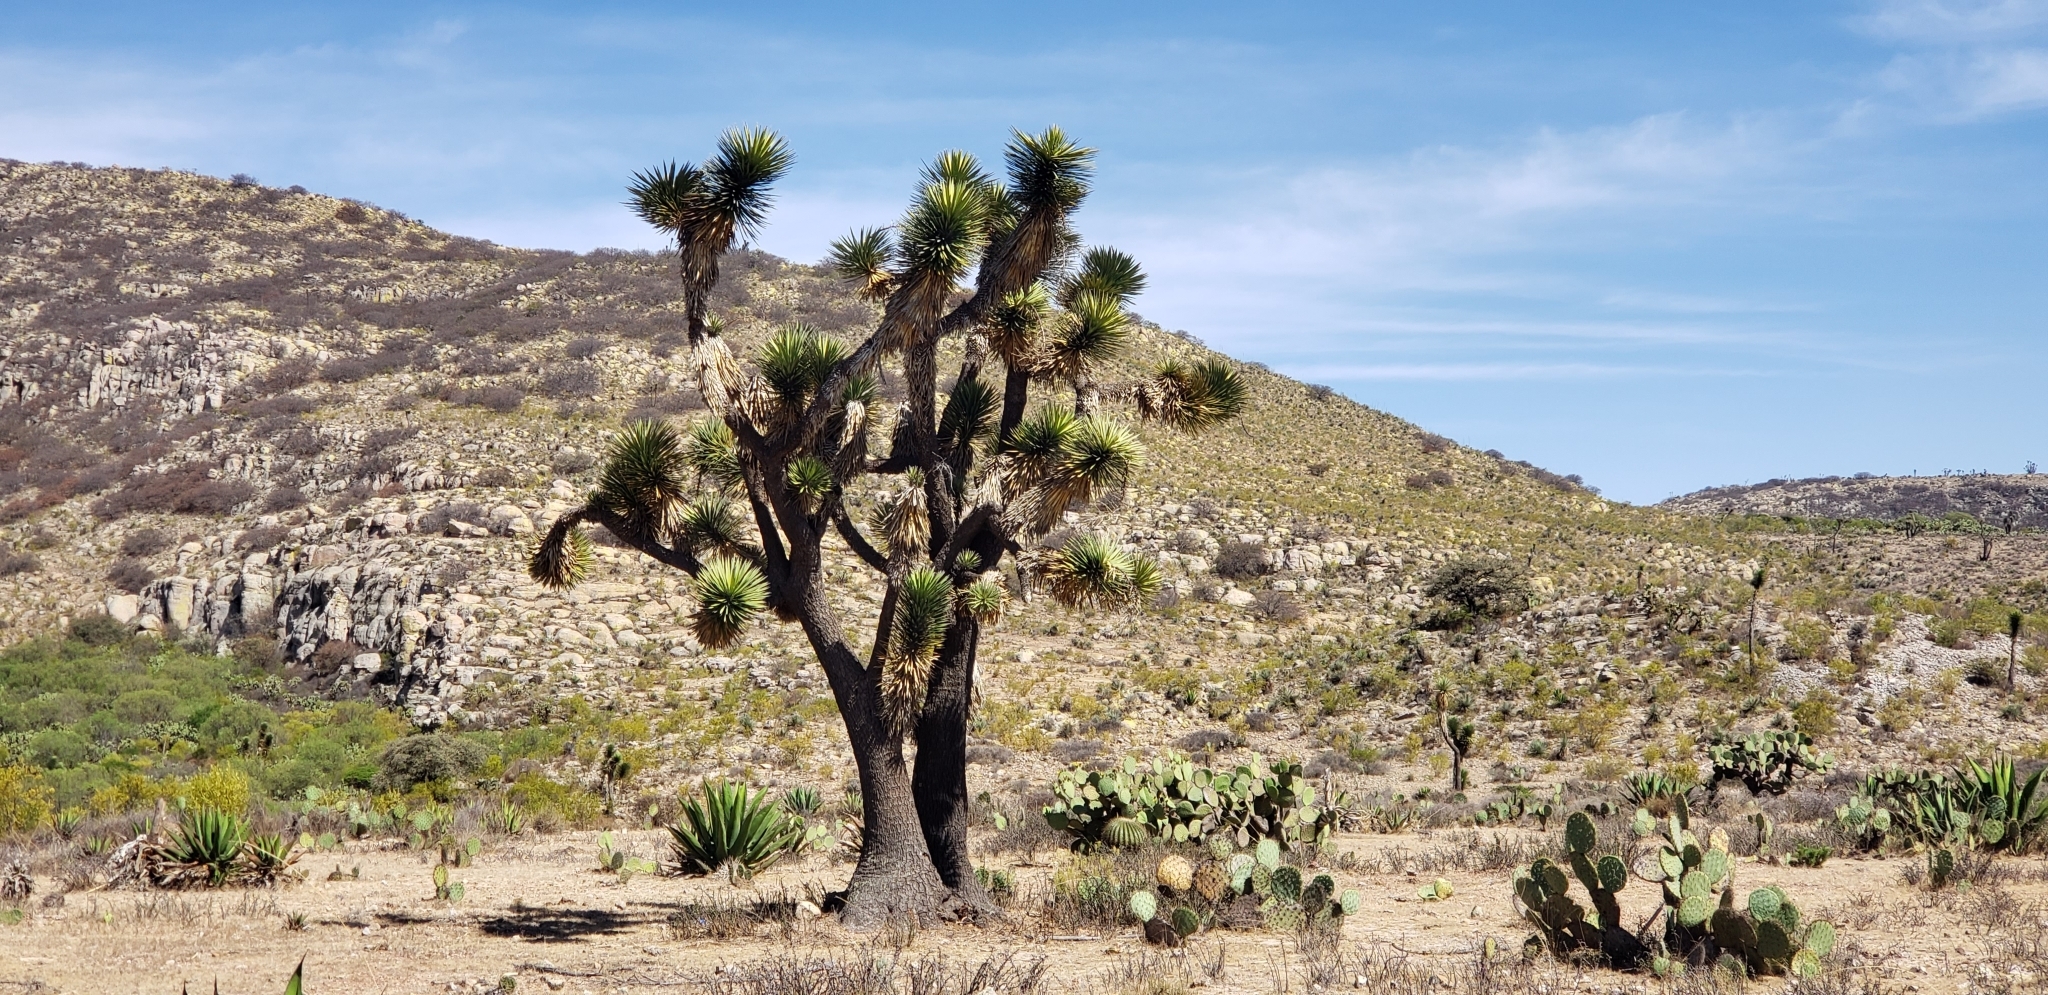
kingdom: Plantae
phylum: Tracheophyta
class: Liliopsida
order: Asparagales
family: Asparagaceae
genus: Yucca
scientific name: Yucca decipiens
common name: Chinese palm
